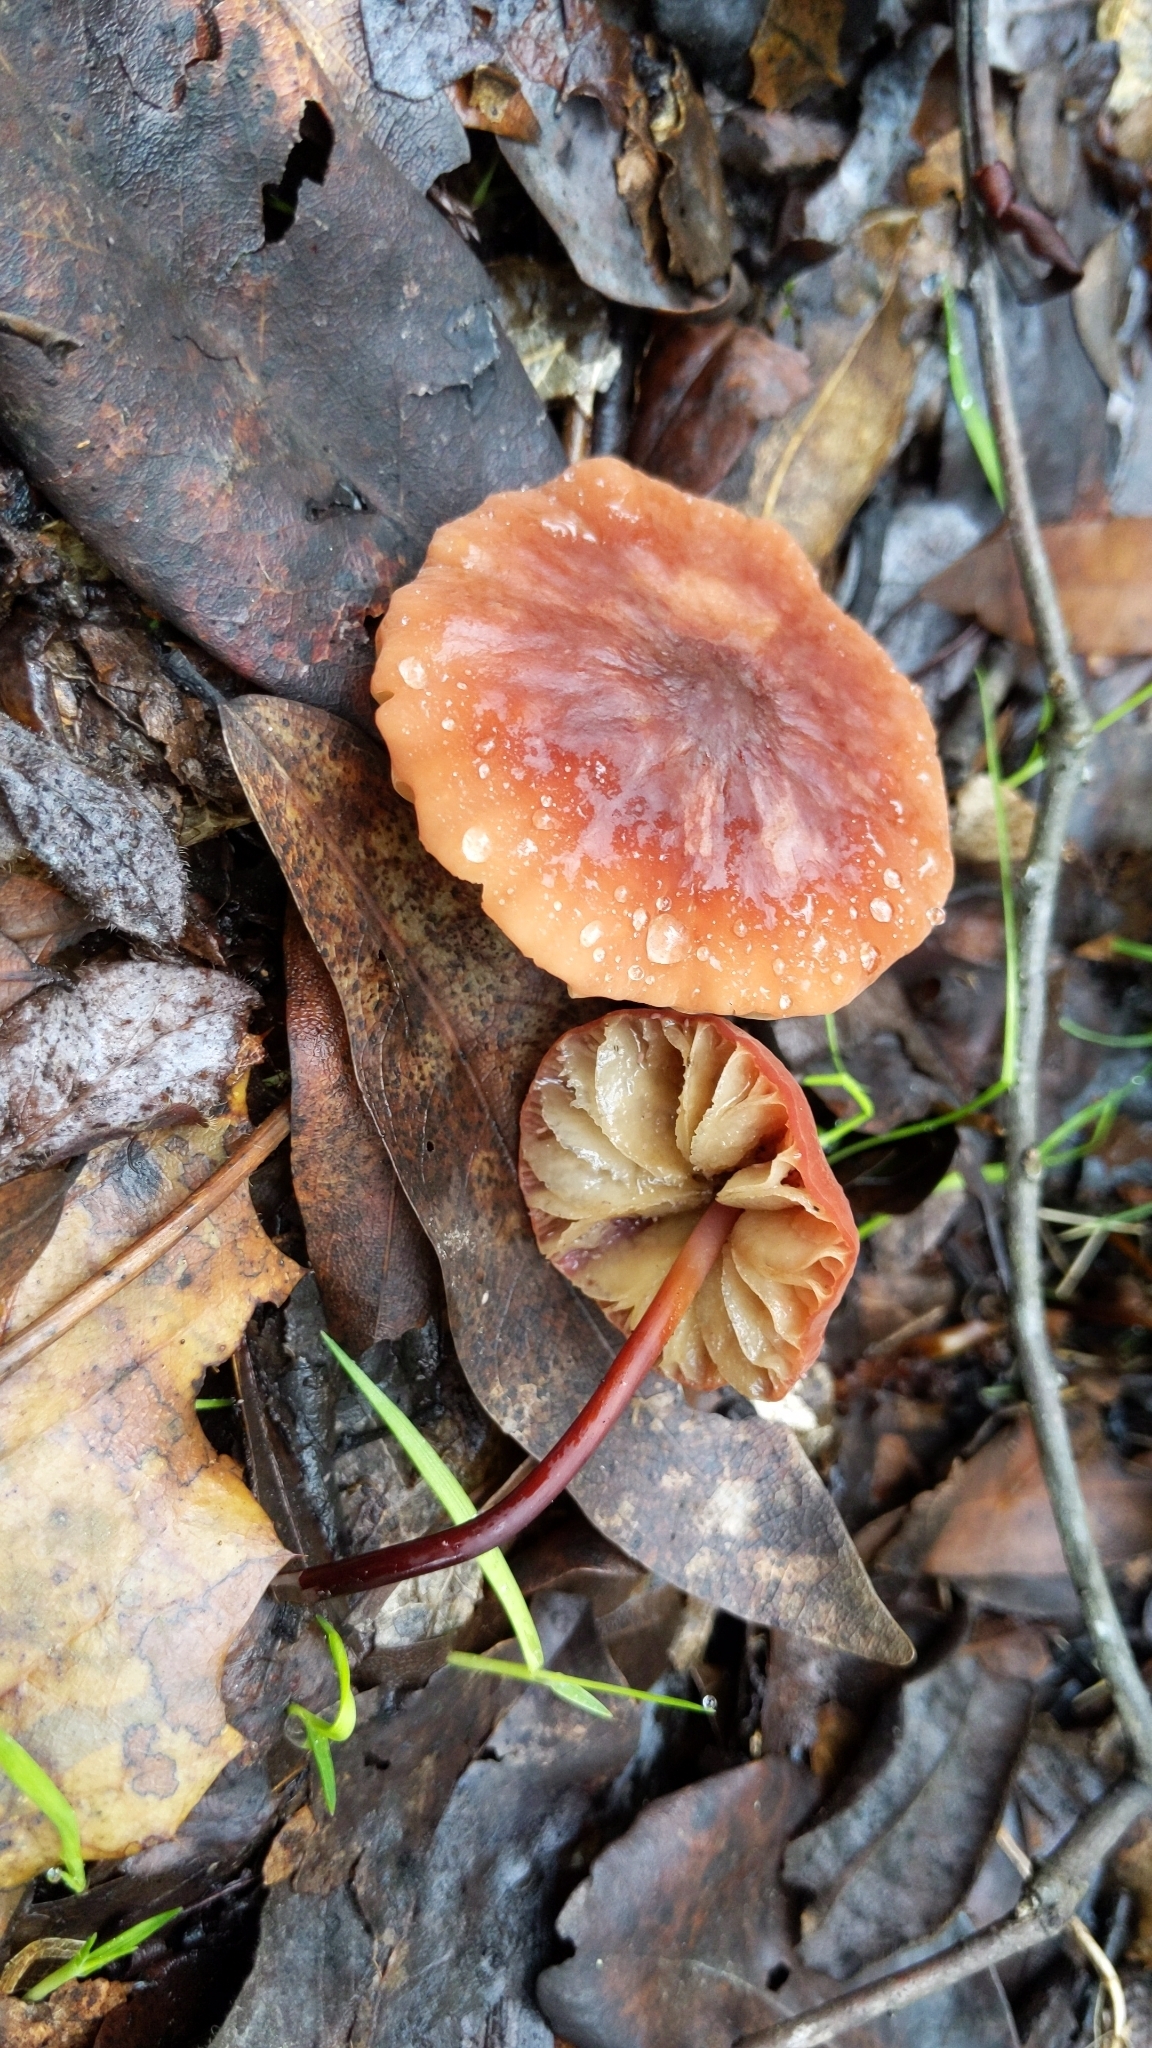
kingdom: Fungi
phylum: Basidiomycota
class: Agaricomycetes
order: Agaricales
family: Marasmiaceae
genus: Marasmius
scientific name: Marasmius plicatulus
